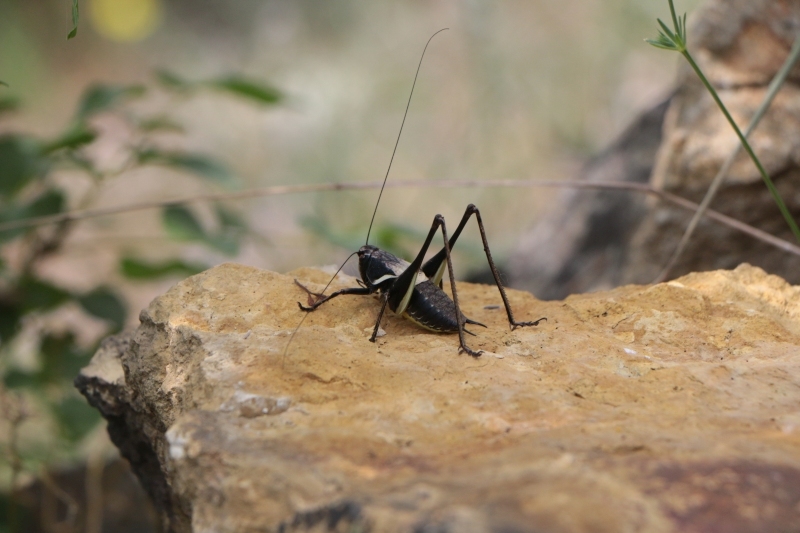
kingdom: Animalia
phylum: Arthropoda
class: Insecta
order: Orthoptera
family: Tettigoniidae
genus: Pholidoptera
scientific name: Pholidoptera aptera
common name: Alpine dark bush-cricket
